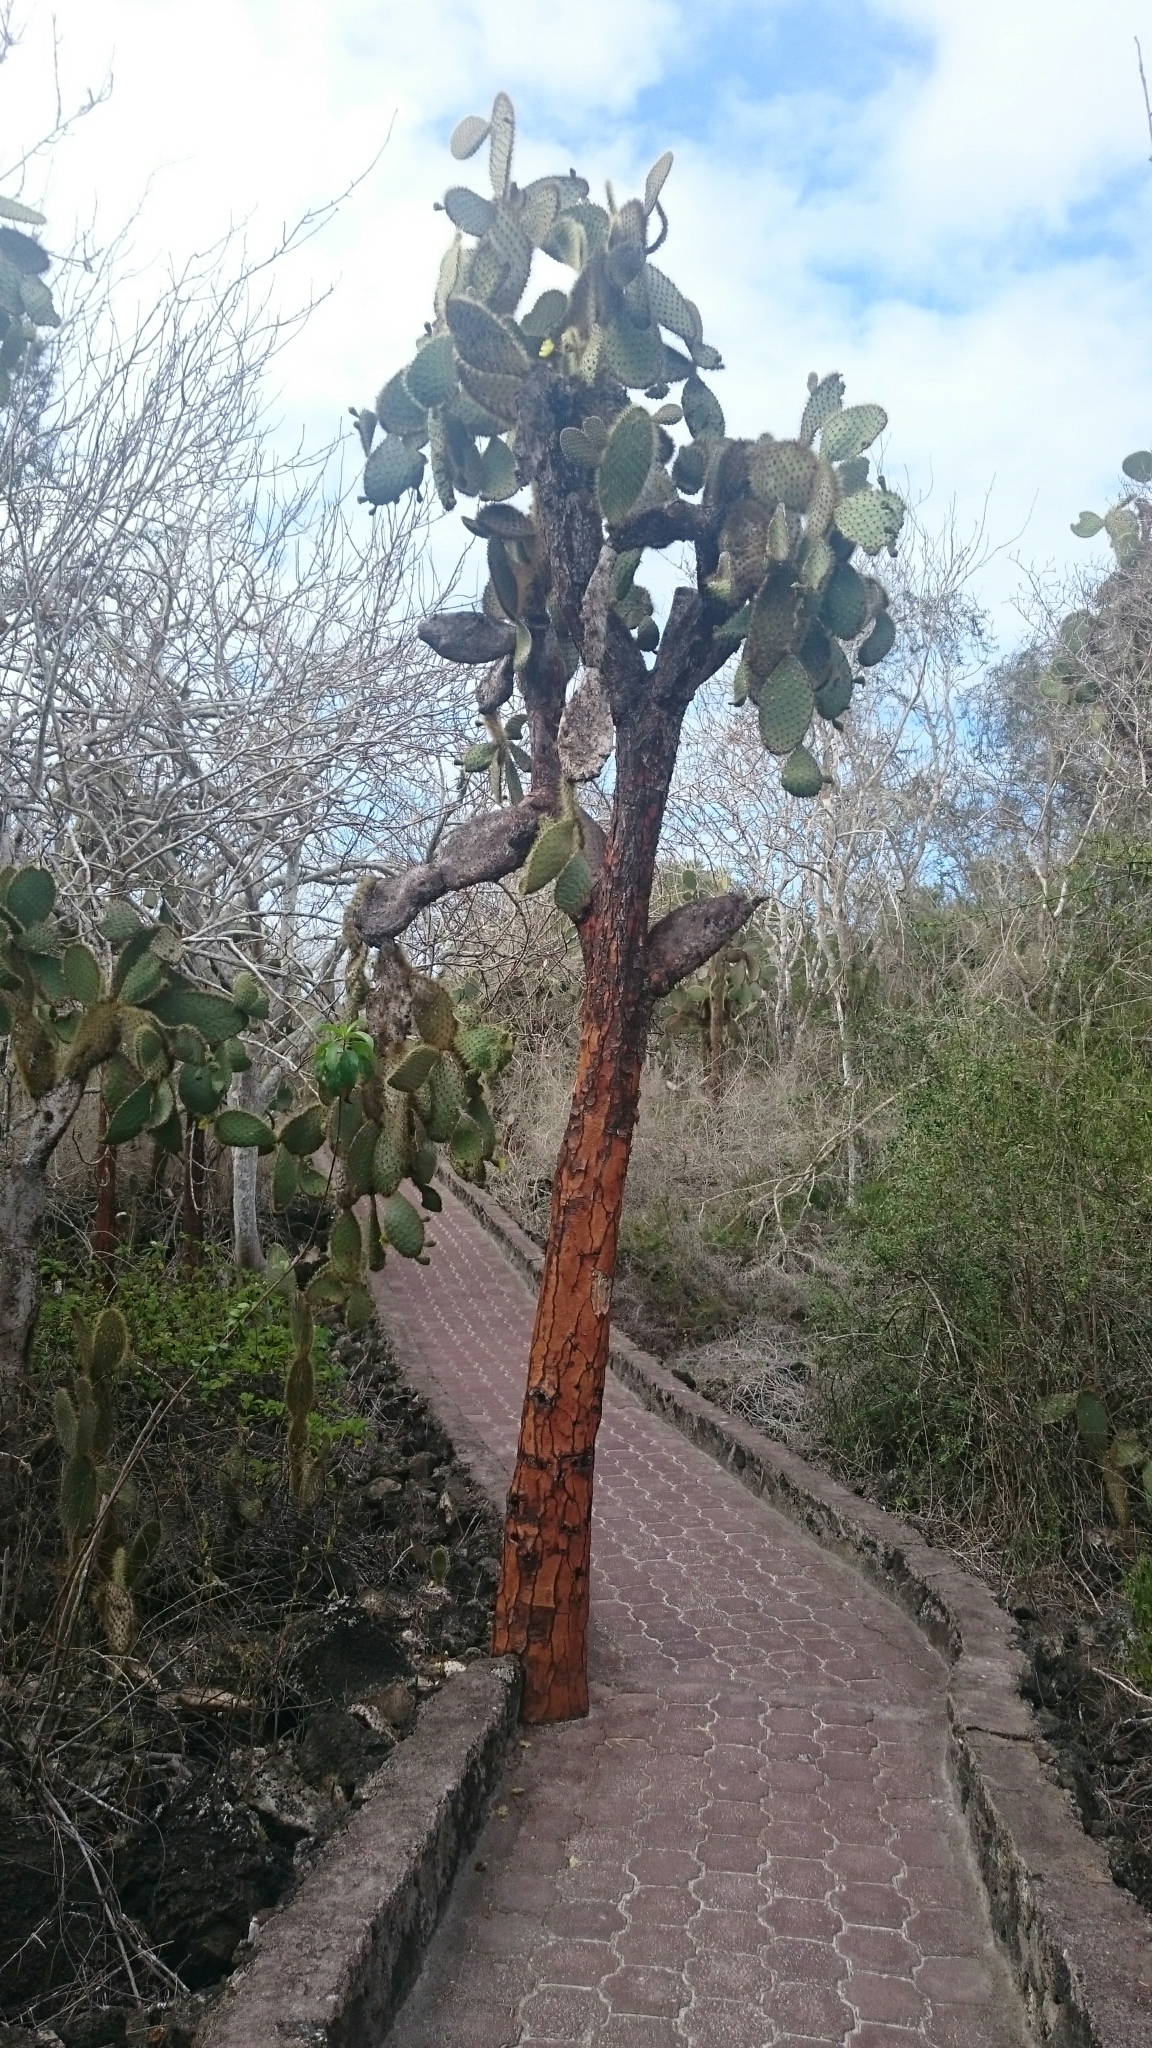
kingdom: Plantae
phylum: Tracheophyta
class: Magnoliopsida
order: Caryophyllales
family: Cactaceae
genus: Opuntia
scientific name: Opuntia galapageia
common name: Galápagos prickly pear
